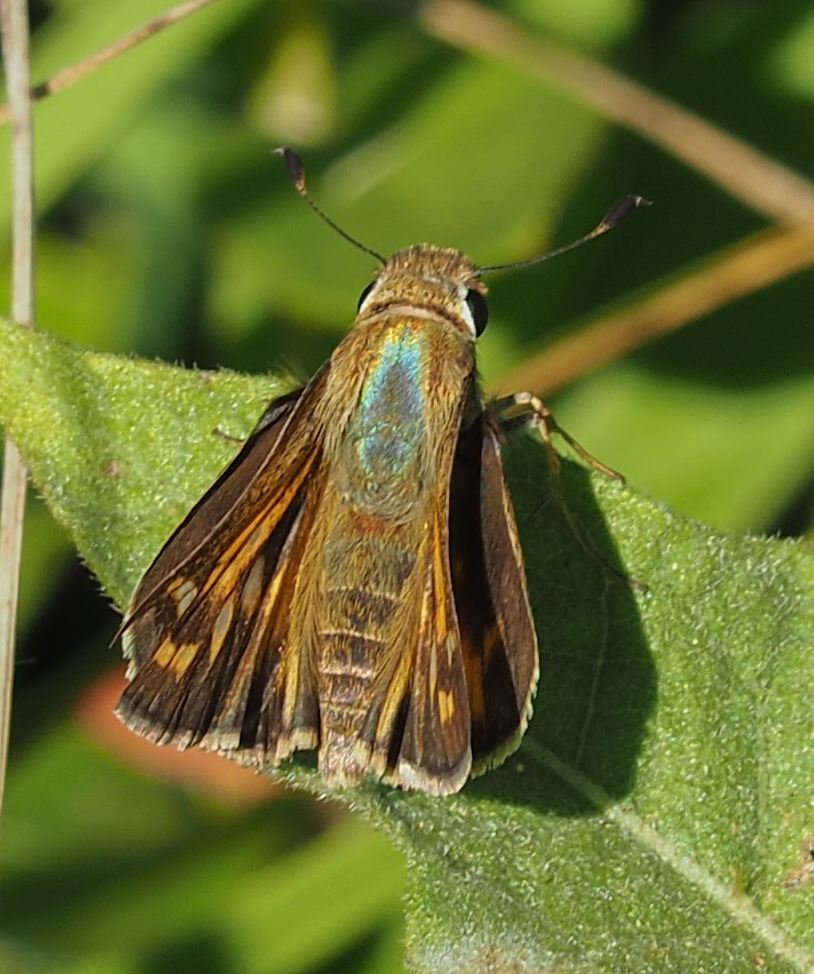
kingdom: Animalia
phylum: Arthropoda
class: Insecta
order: Lepidoptera
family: Hesperiidae
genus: Atalopedes
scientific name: Atalopedes
